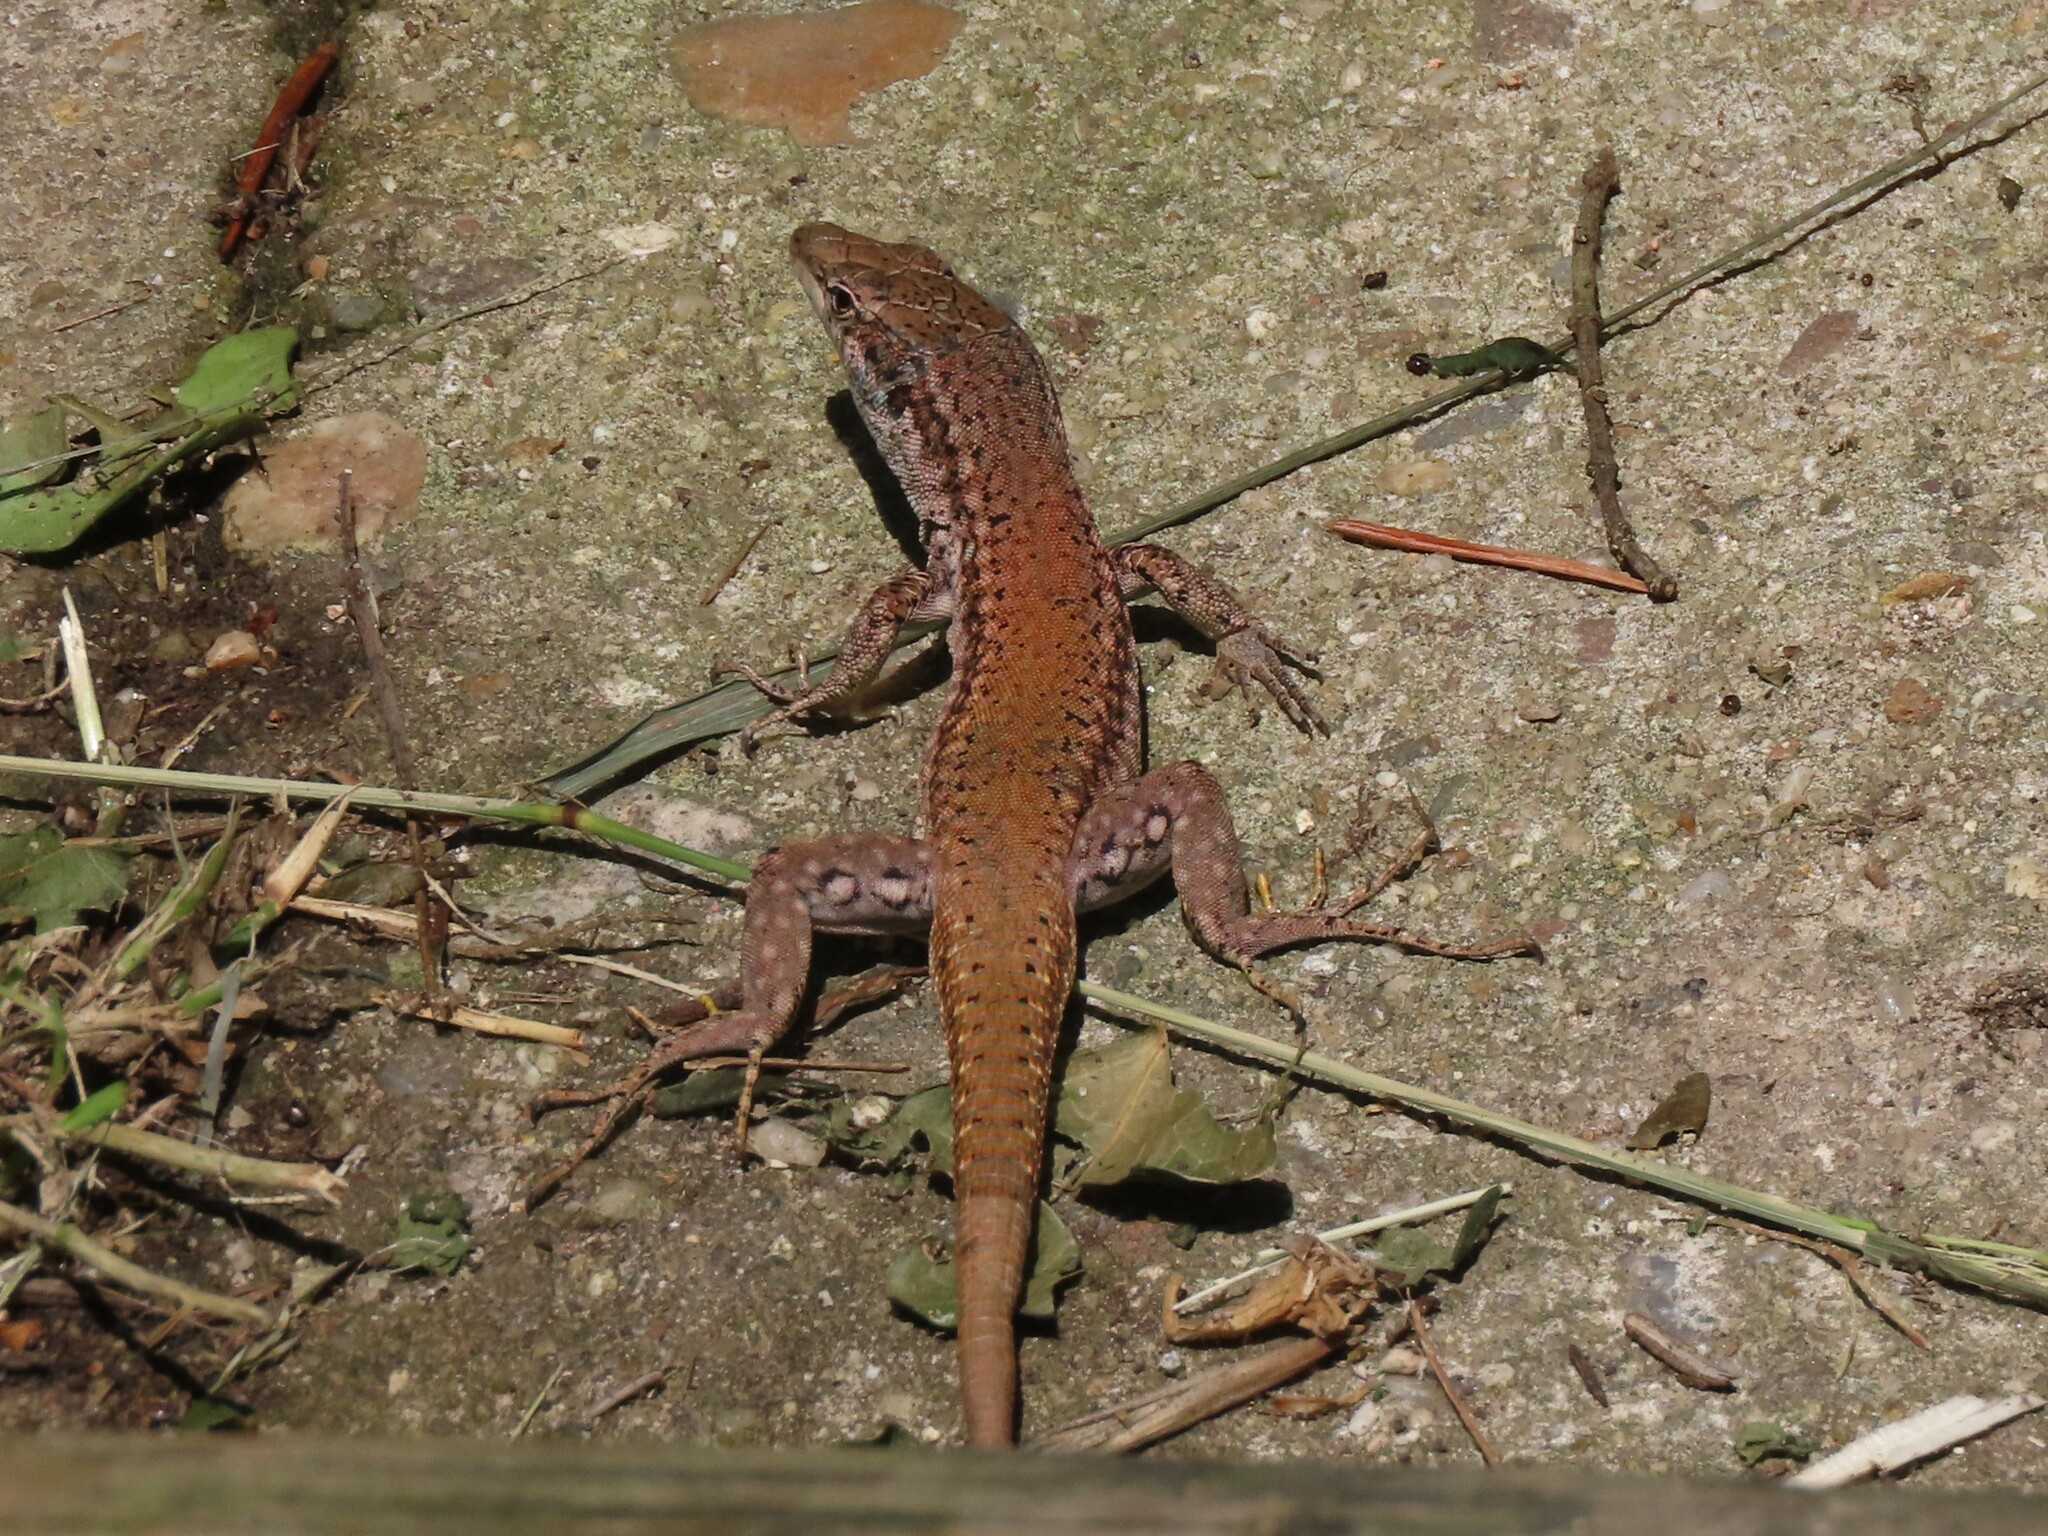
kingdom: Animalia
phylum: Chordata
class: Squamata
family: Lacertidae
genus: Podarcis
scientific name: Podarcis virescens
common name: Geniez’s wall lizard
